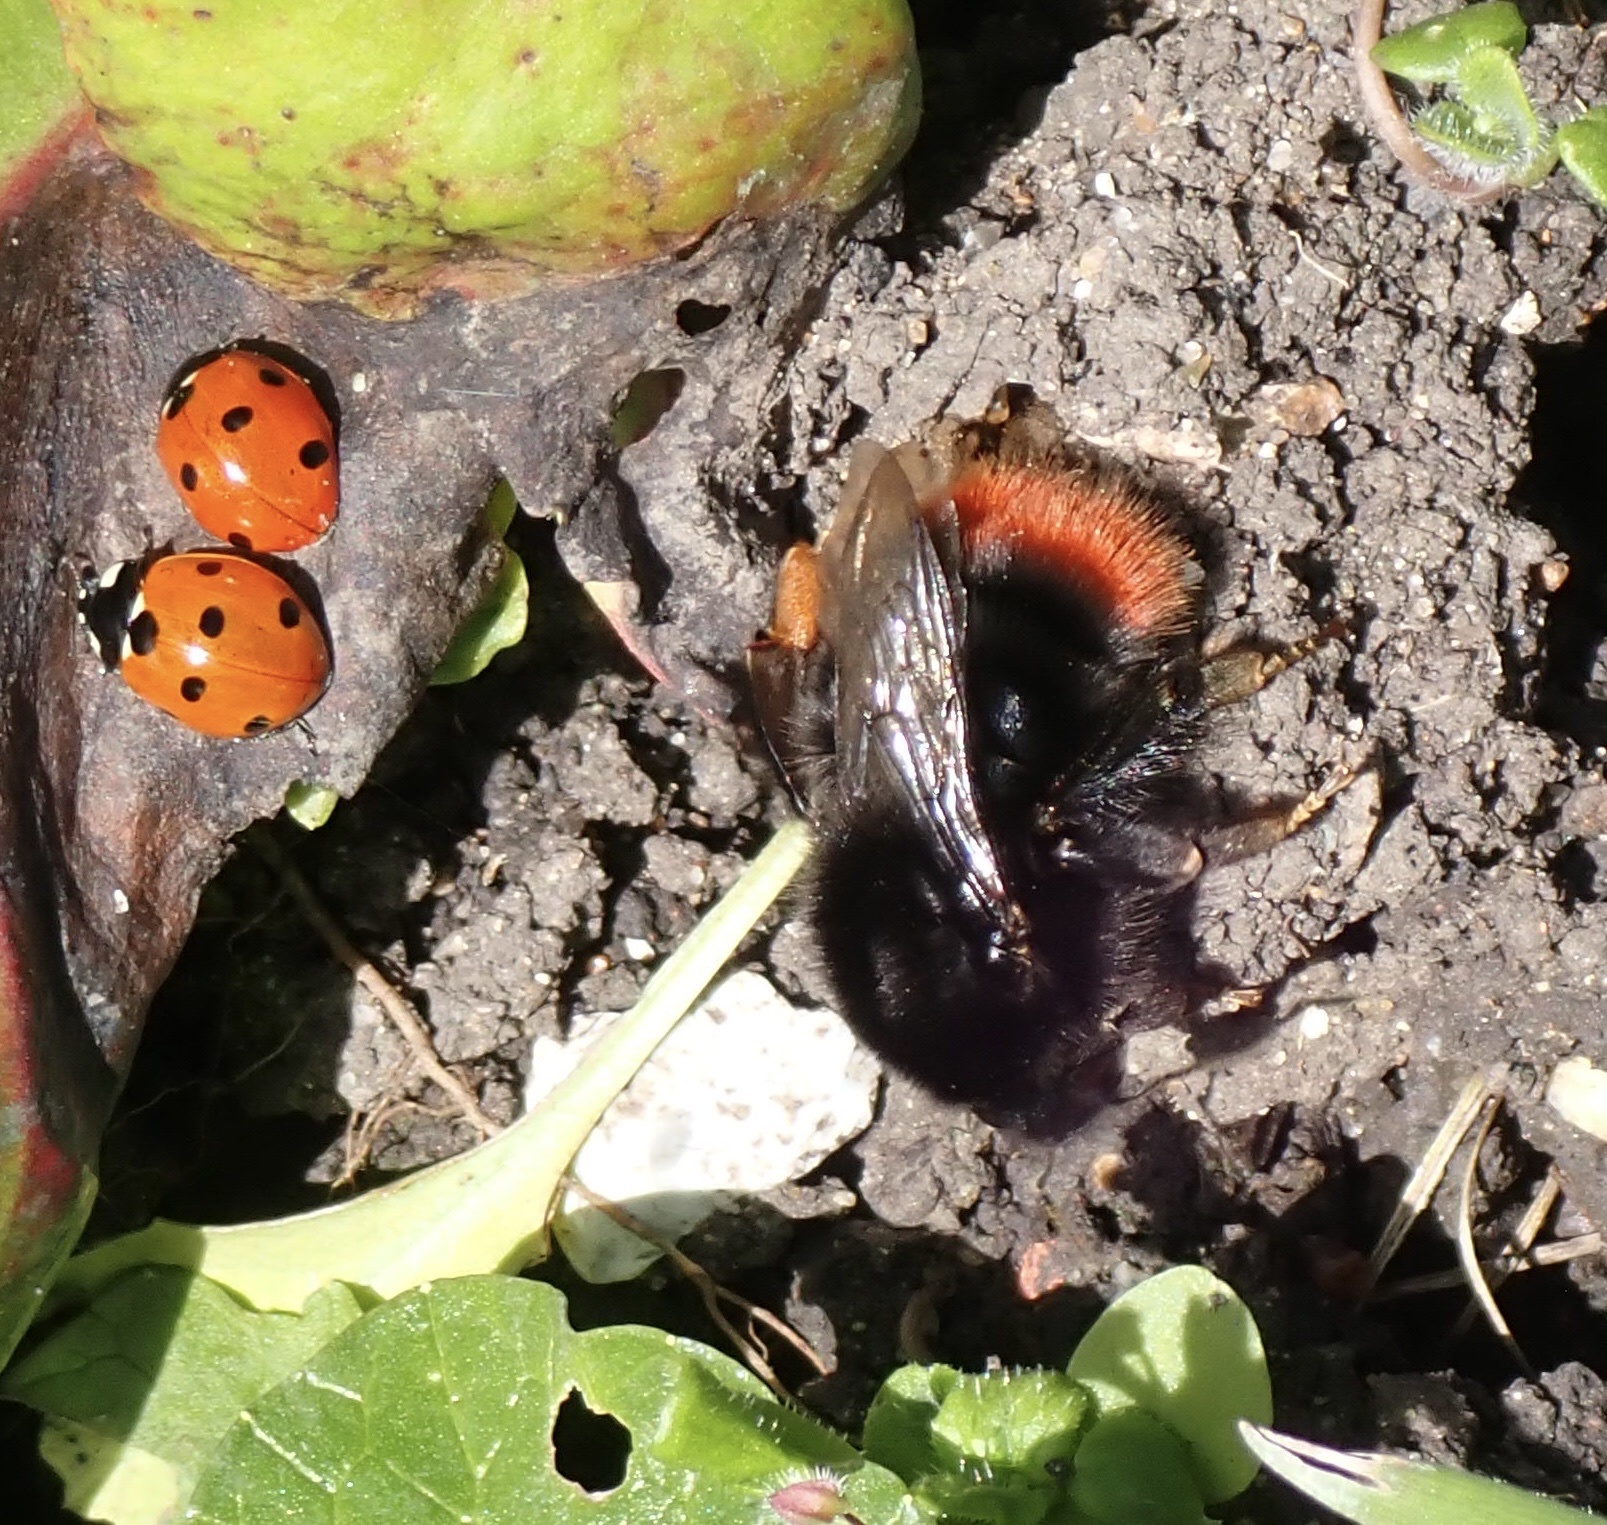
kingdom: Animalia
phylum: Arthropoda
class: Insecta
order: Hymenoptera
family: Apidae
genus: Bombus
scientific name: Bombus lapidarius
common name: Large red-tailed humble-bee
